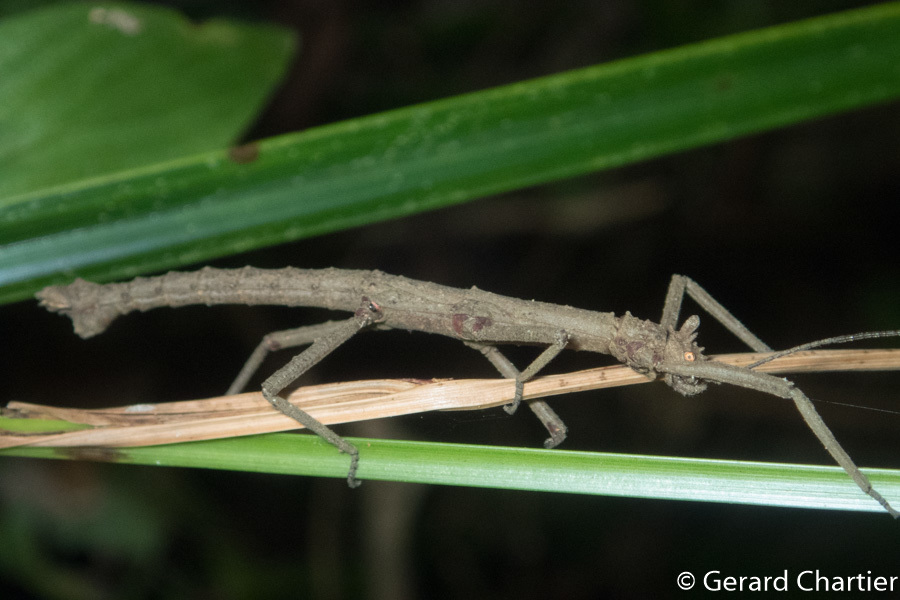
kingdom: Animalia
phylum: Arthropoda
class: Insecta
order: Phasmida
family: Heteropterygidae
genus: Orestes
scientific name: Orestes mouhotii
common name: Small cigar stick insect
